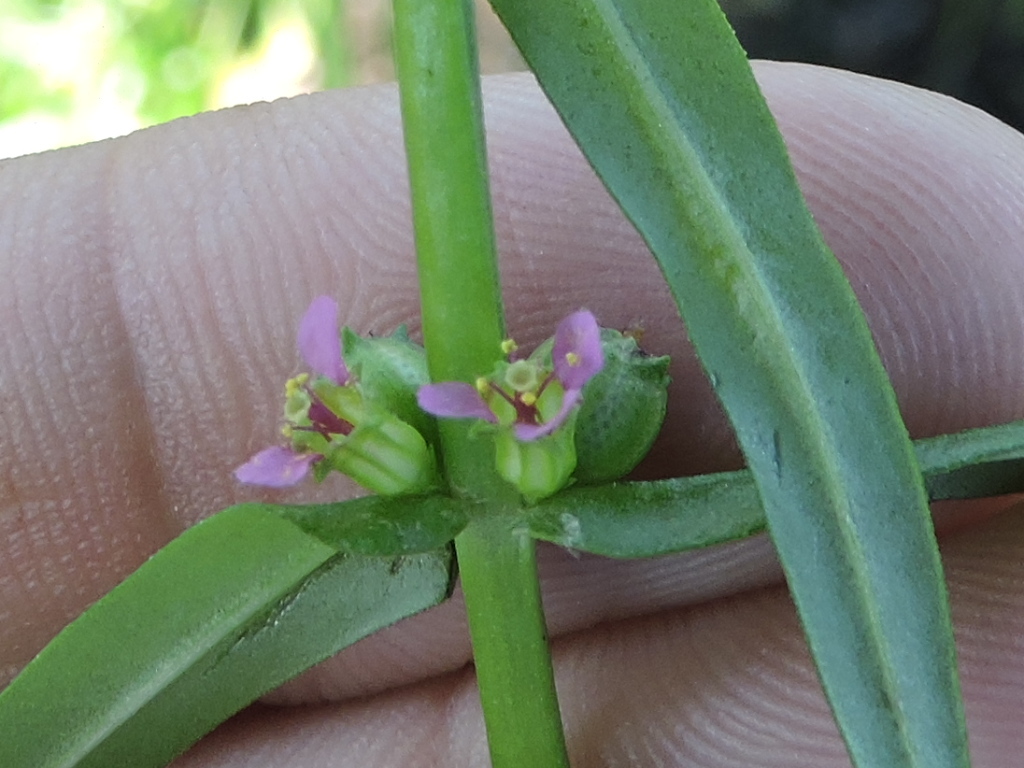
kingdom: Plantae
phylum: Tracheophyta
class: Magnoliopsida
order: Myrtales
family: Lythraceae
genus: Ammannia
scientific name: Ammannia coccinea
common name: Valley redstem
